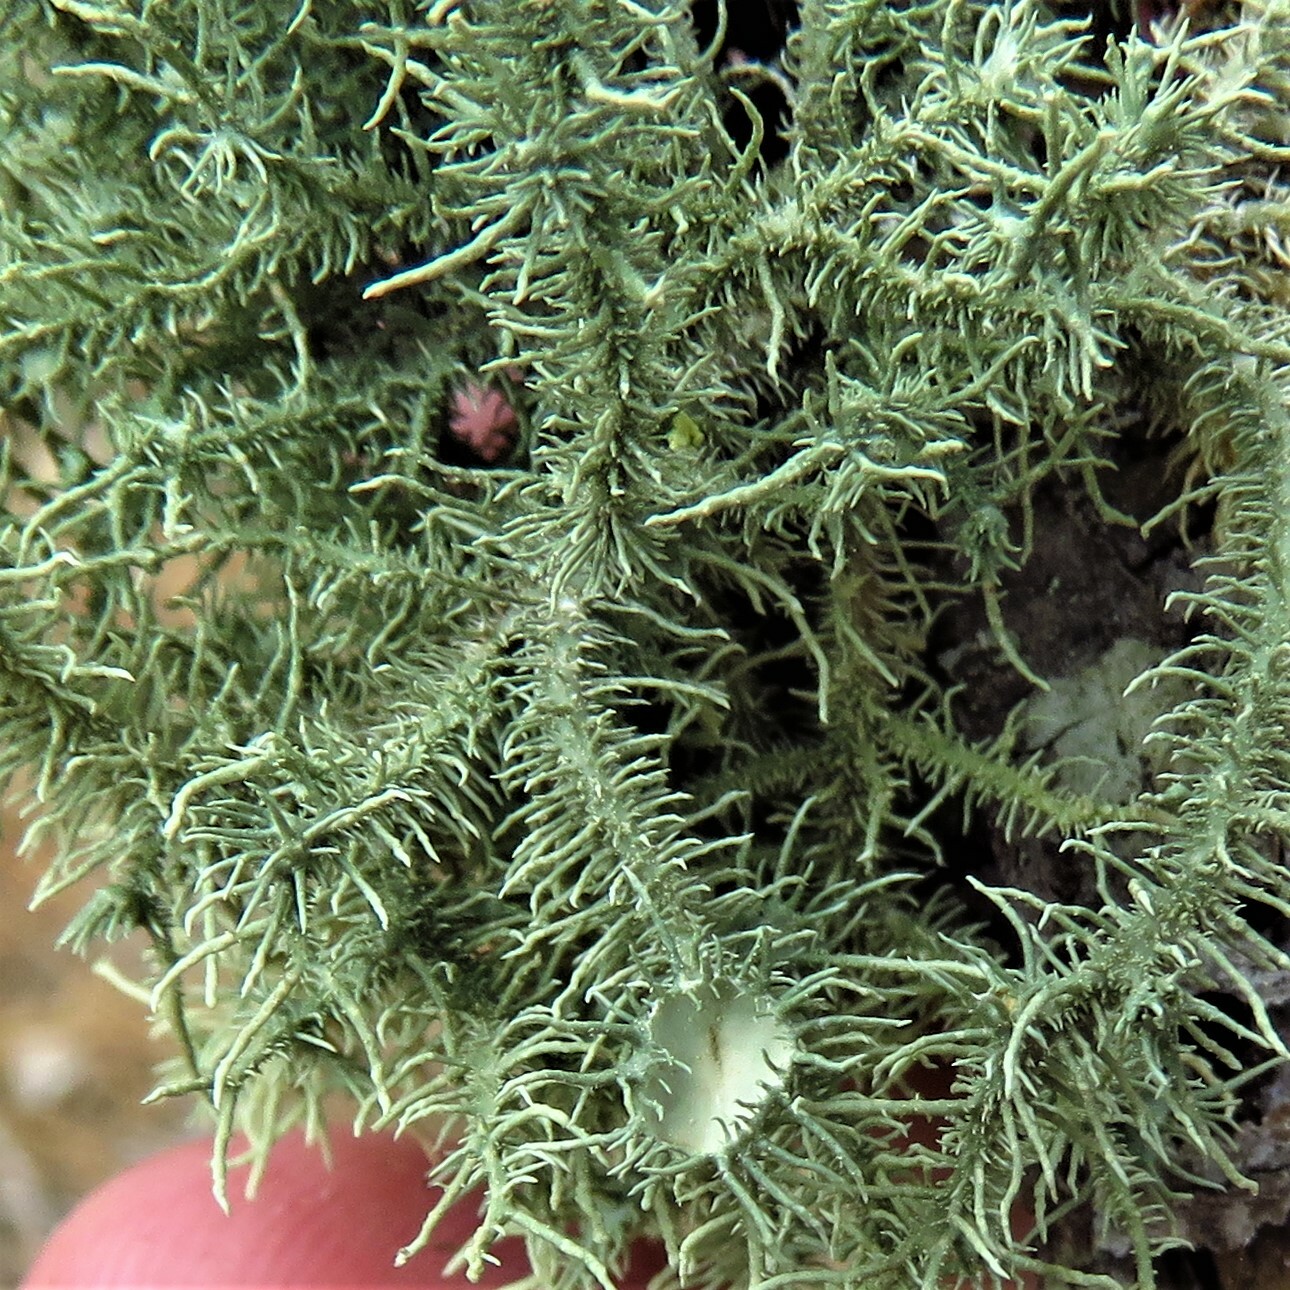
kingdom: Fungi
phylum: Ascomycota
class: Lecanoromycetes
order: Lecanorales
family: Parmeliaceae
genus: Usnea
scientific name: Usnea strigosa
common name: Bushy beard lichen
